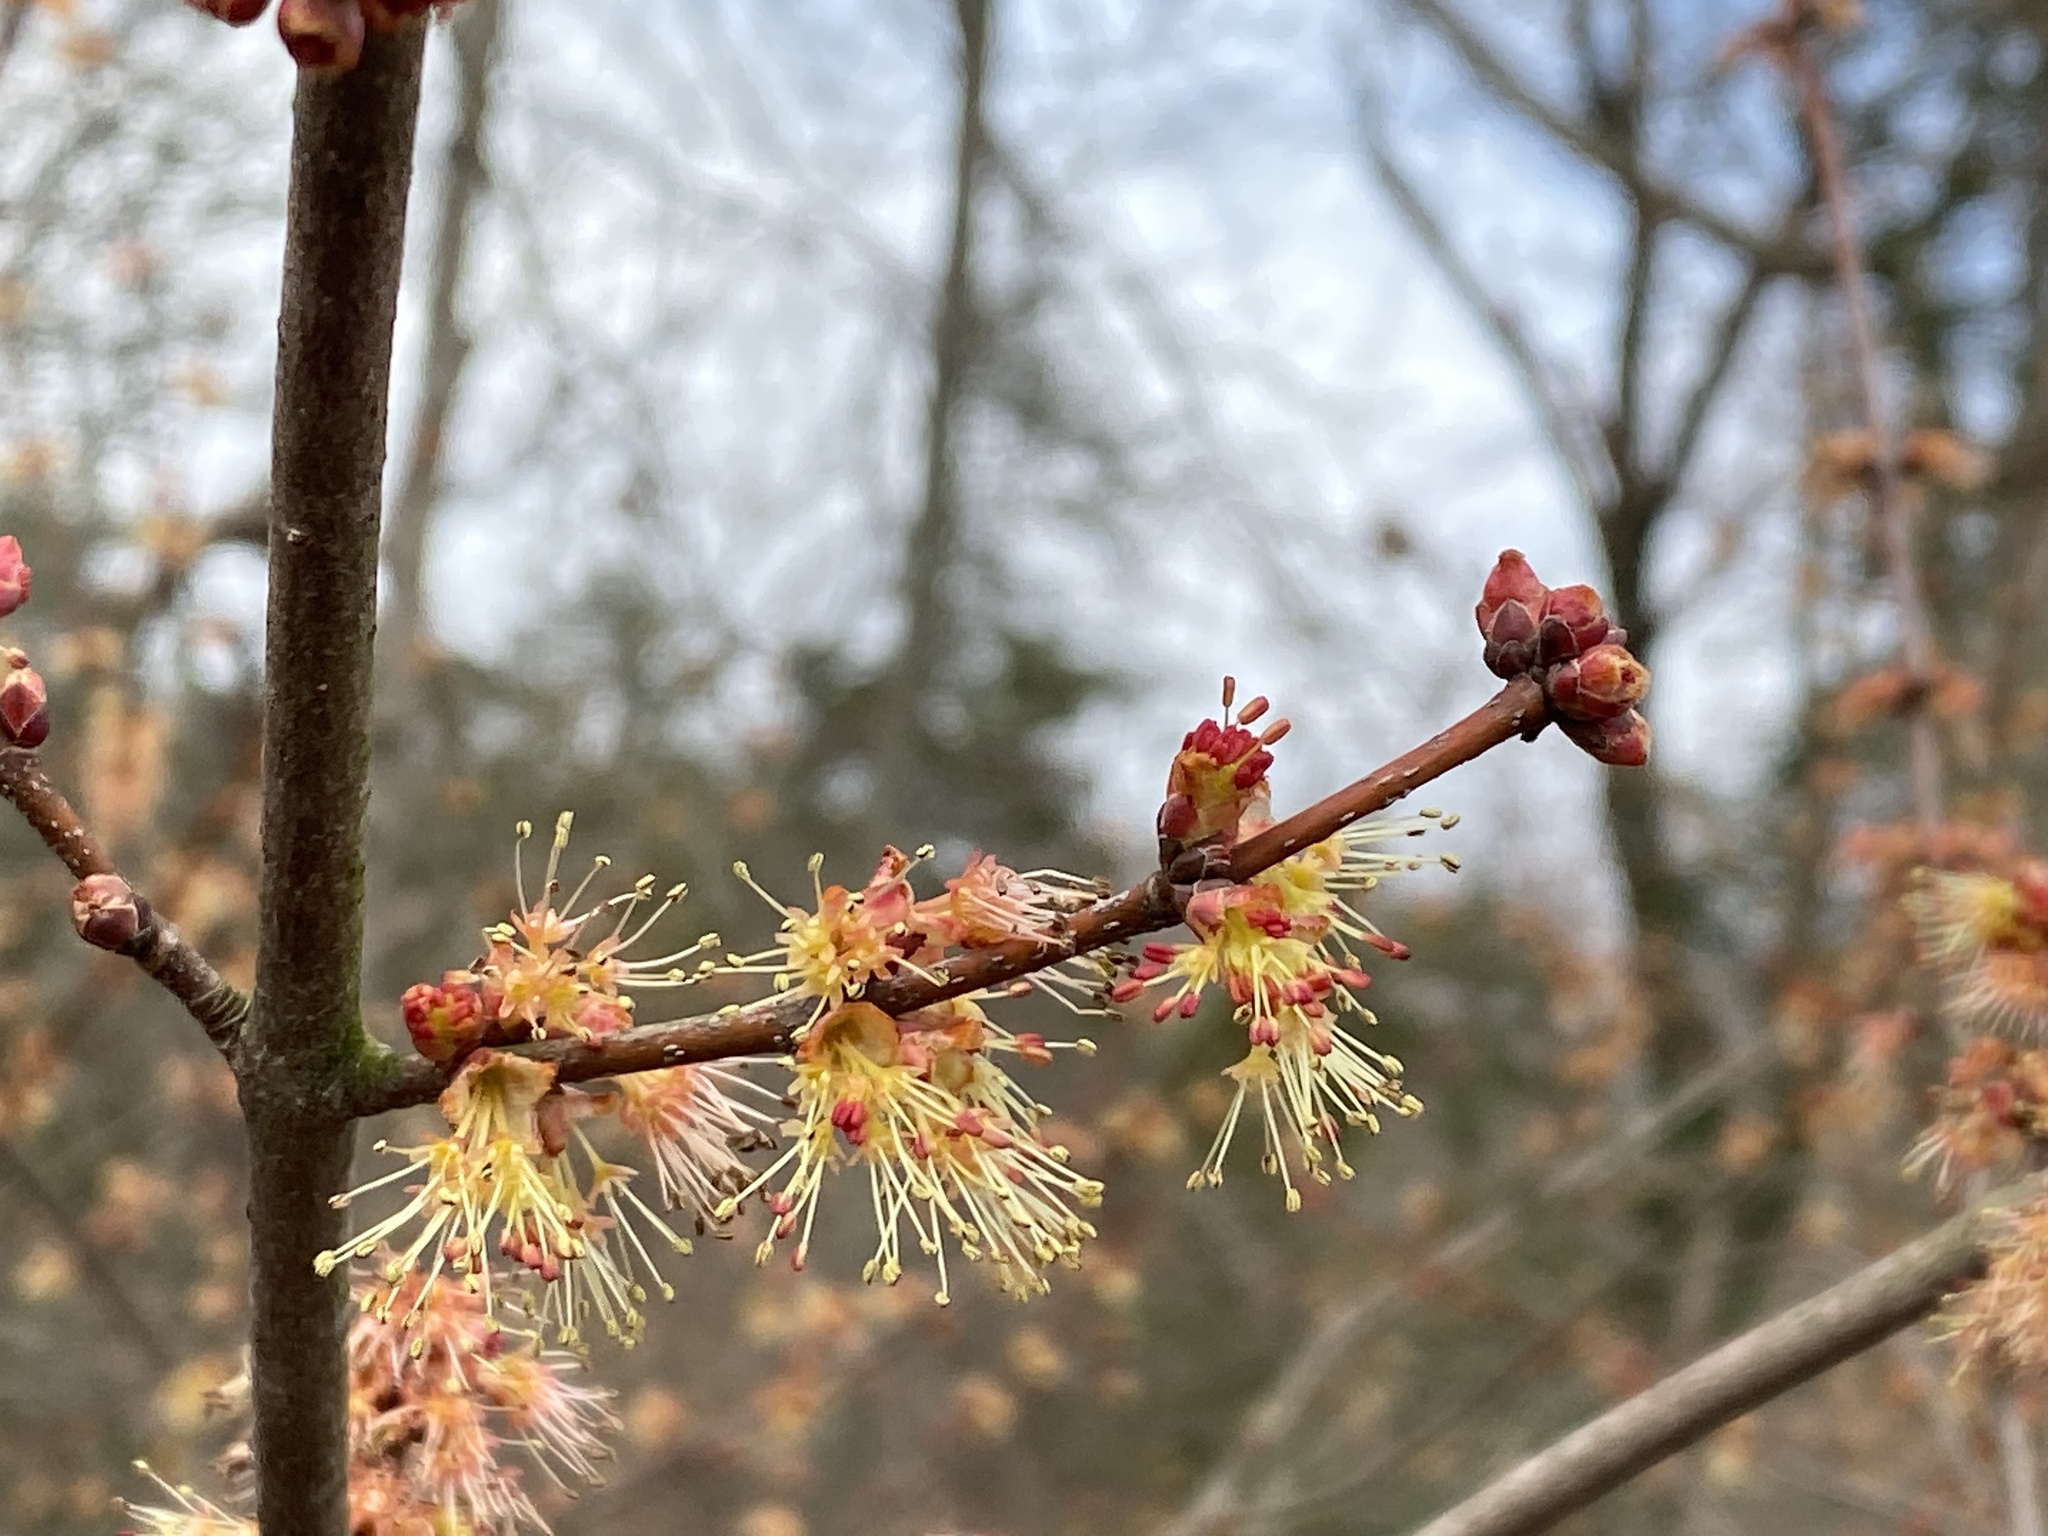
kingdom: Plantae
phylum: Tracheophyta
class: Magnoliopsida
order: Sapindales
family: Sapindaceae
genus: Acer
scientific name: Acer rubrum
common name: Red maple
